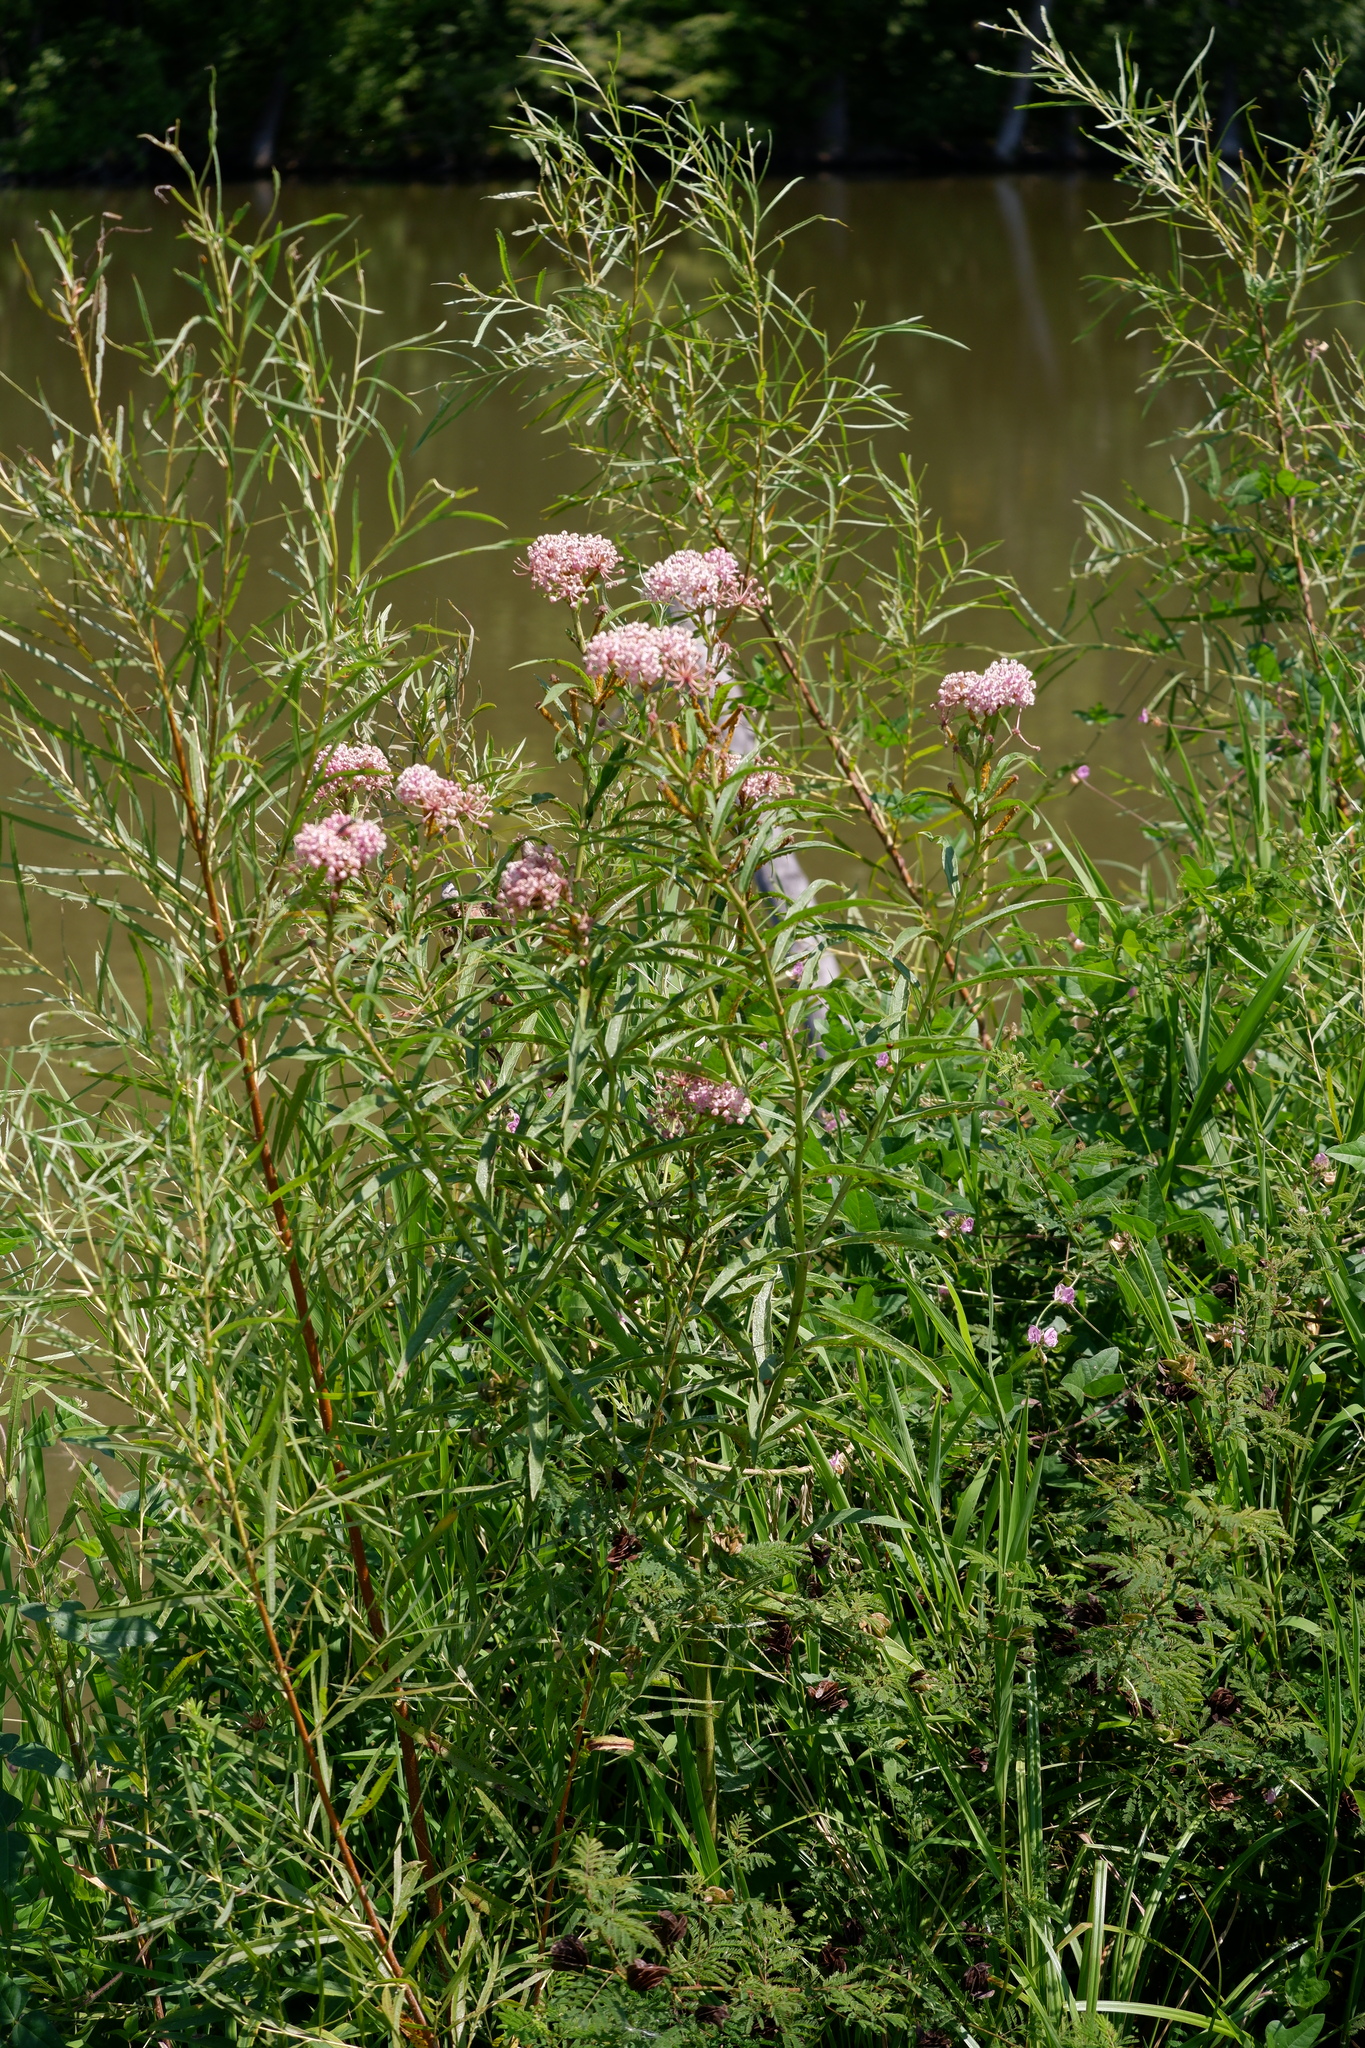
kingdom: Plantae
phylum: Tracheophyta
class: Magnoliopsida
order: Gentianales
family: Apocynaceae
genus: Asclepias
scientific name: Asclepias incarnata
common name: Swamp milkweed
